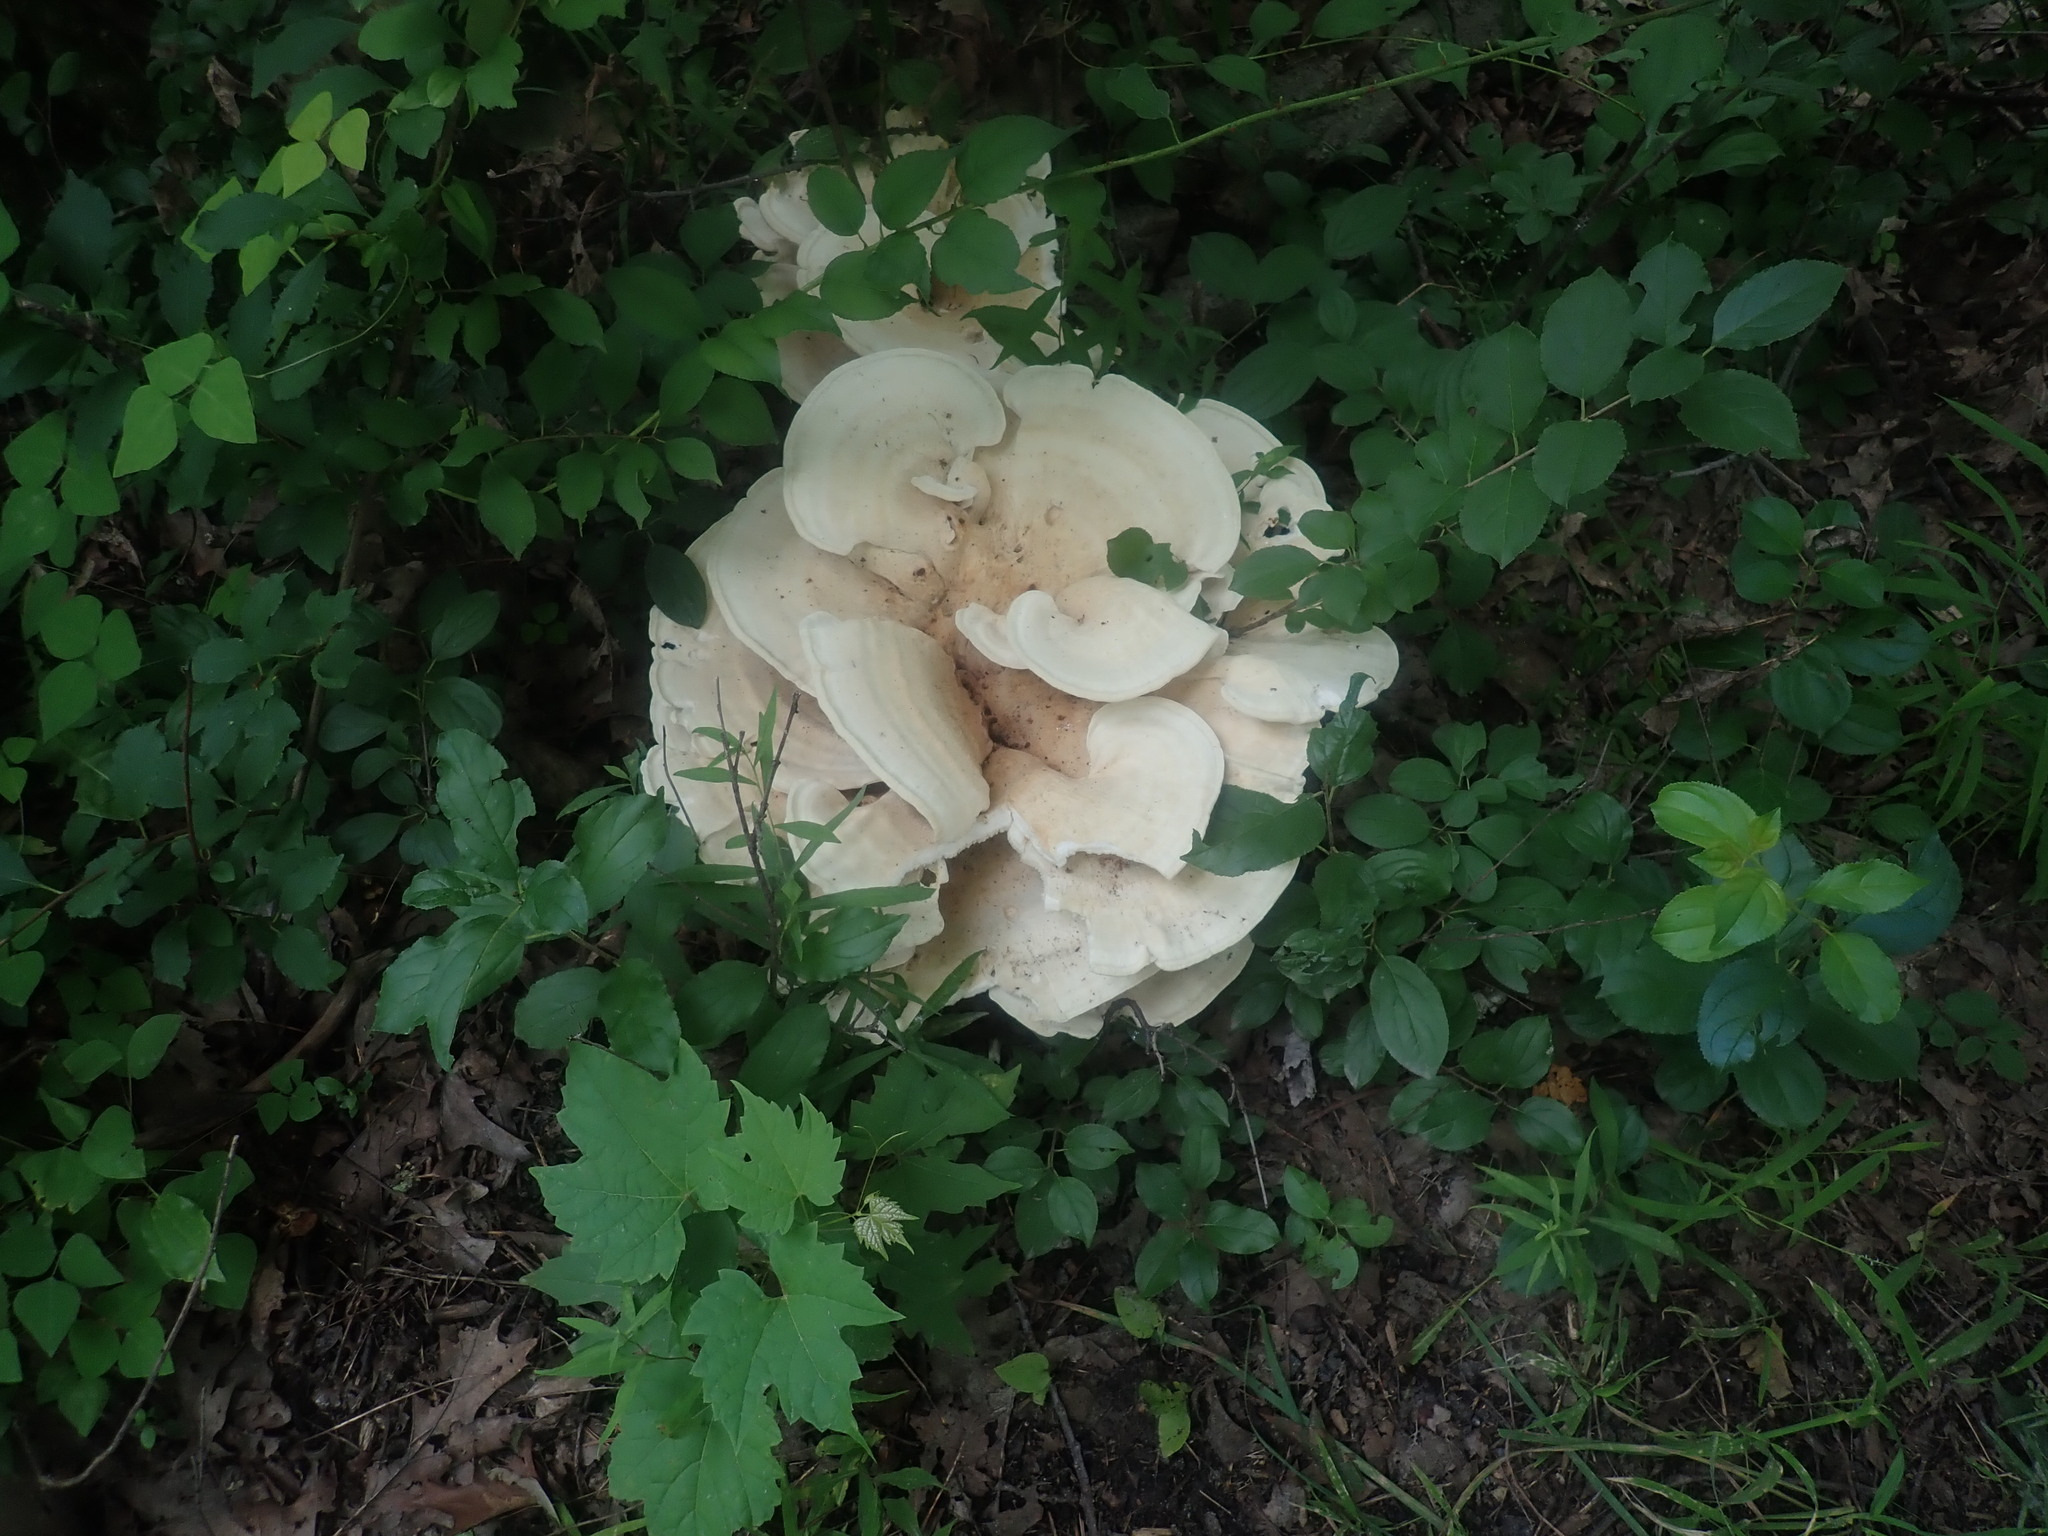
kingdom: Fungi
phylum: Basidiomycota
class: Agaricomycetes
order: Russulales
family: Bondarzewiaceae
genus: Bondarzewia
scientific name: Bondarzewia berkeleyi
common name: Berkeley's polypore
